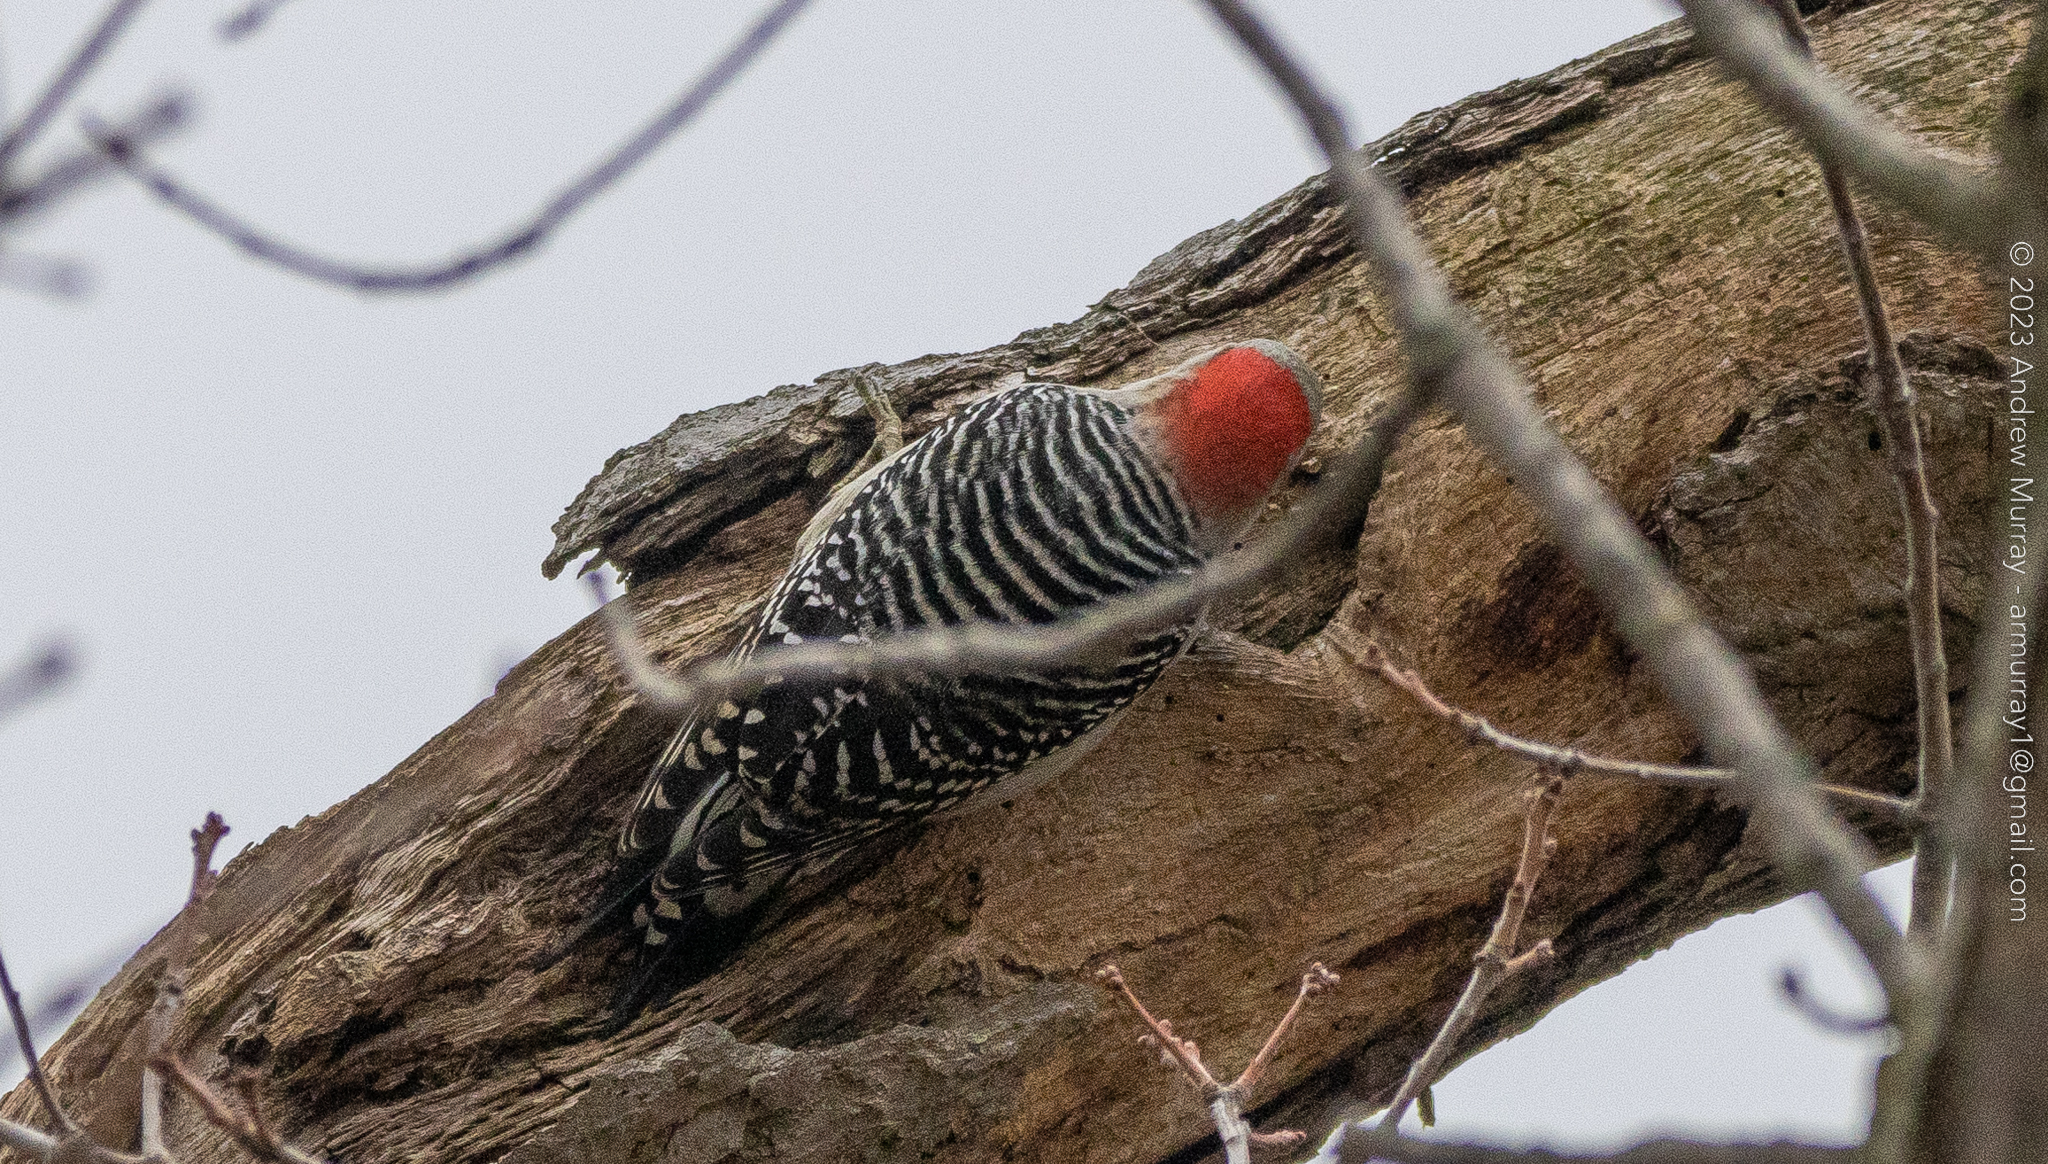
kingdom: Animalia
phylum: Chordata
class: Aves
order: Piciformes
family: Picidae
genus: Melanerpes
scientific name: Melanerpes carolinus
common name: Red-bellied woodpecker
